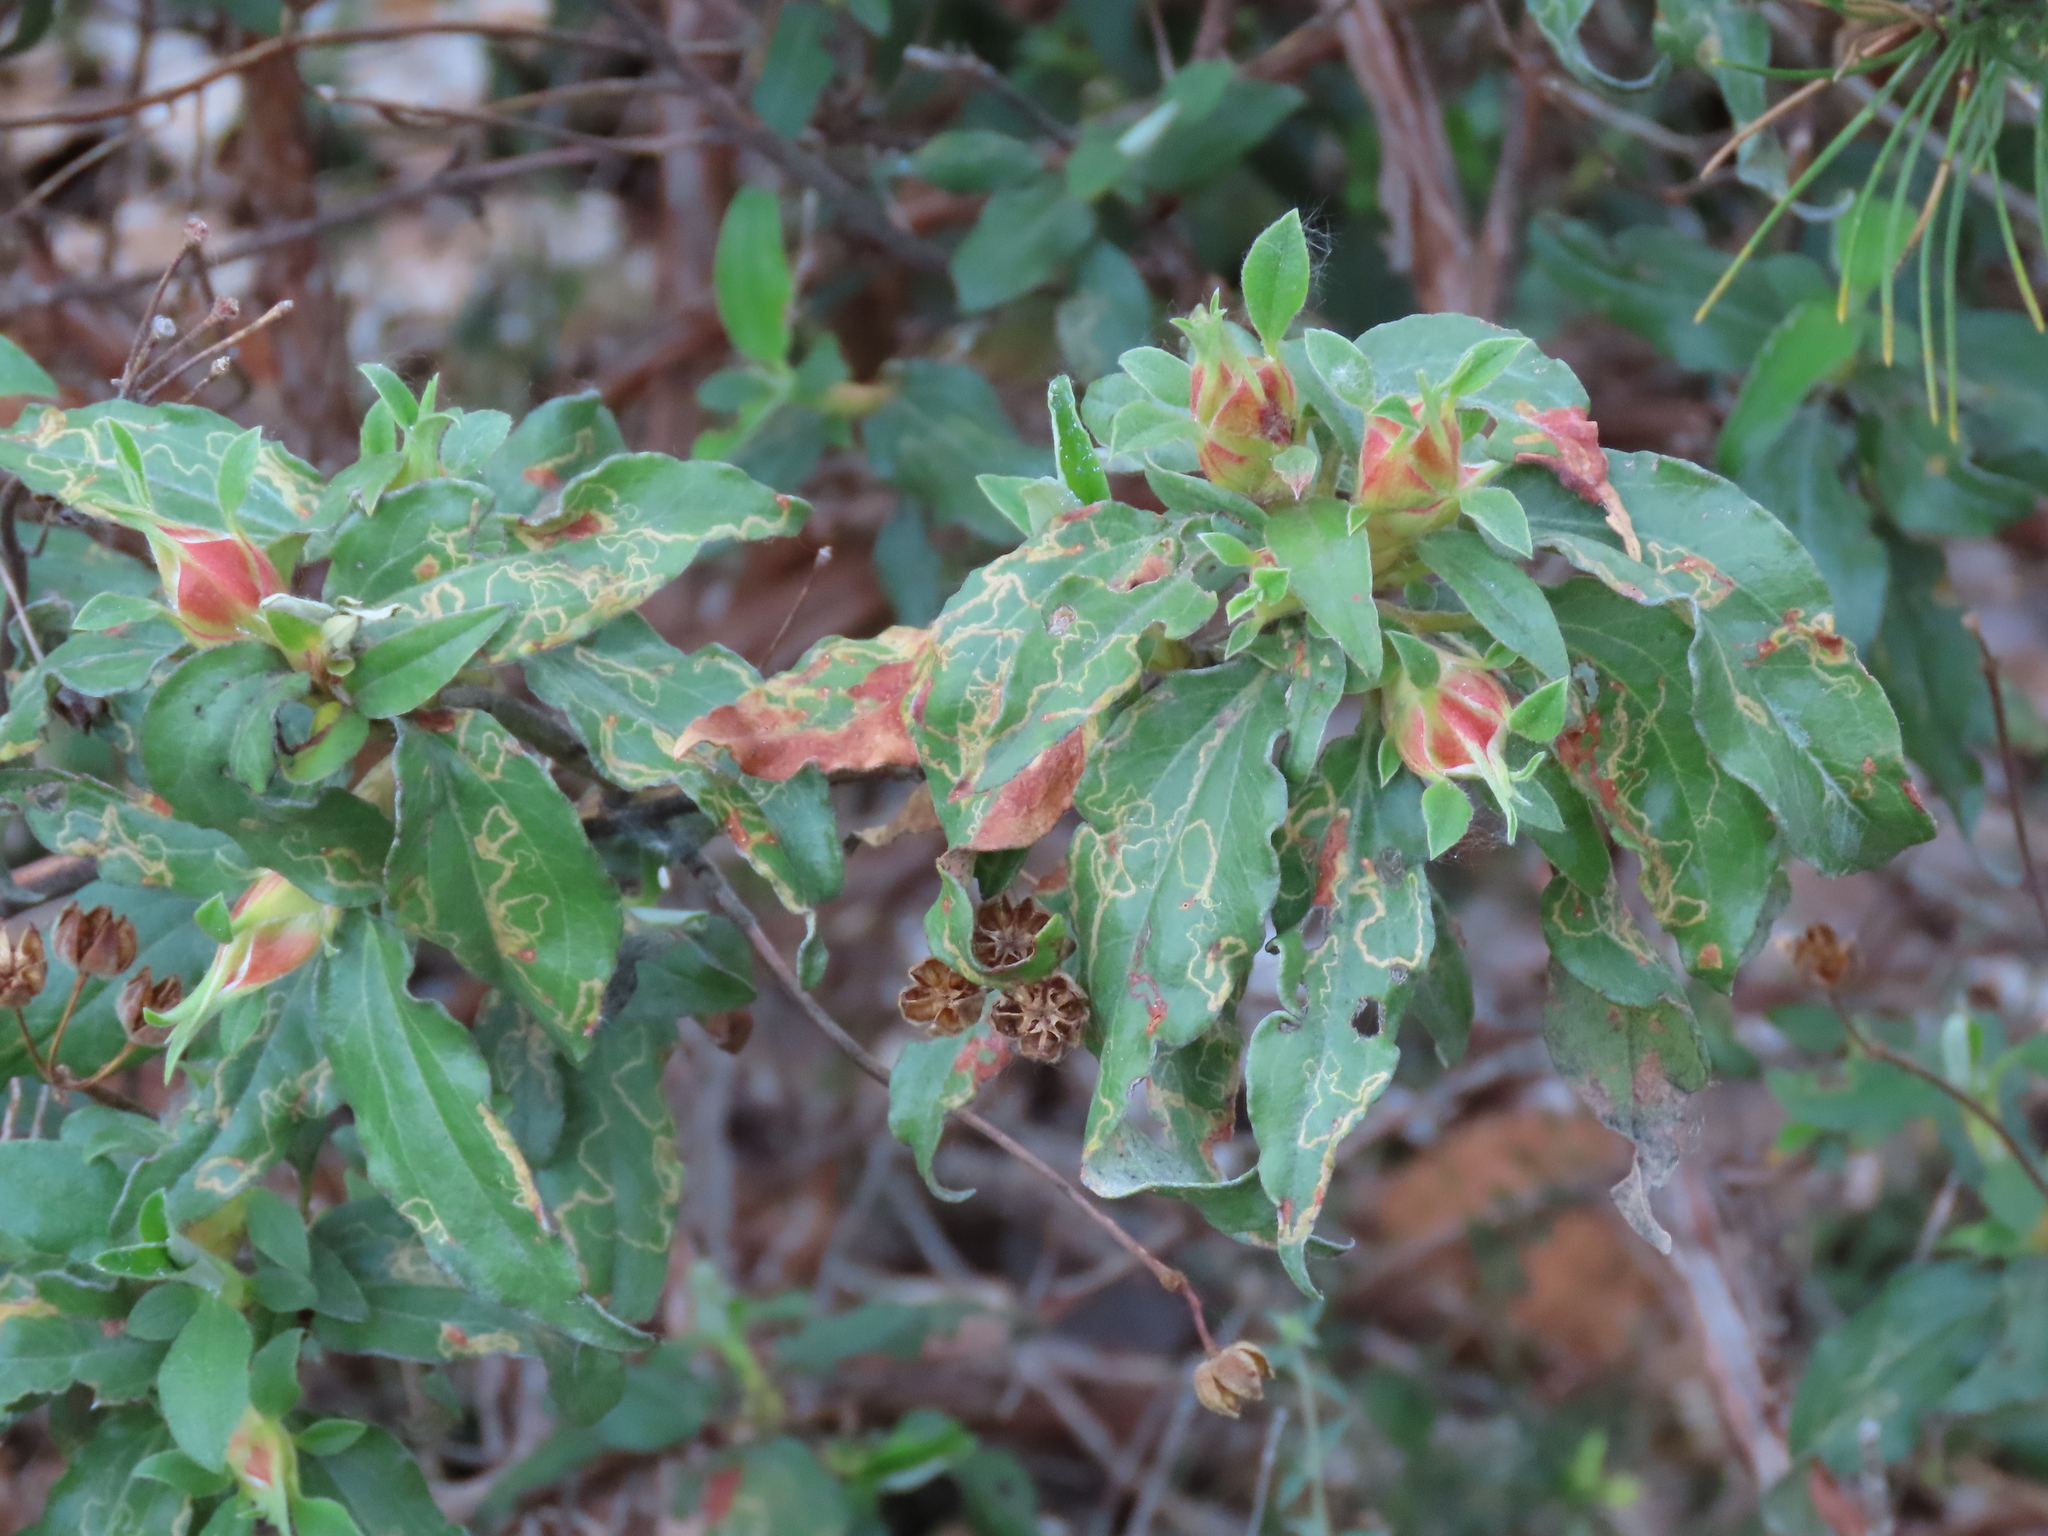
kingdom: Plantae
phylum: Tracheophyta
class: Magnoliopsida
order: Malvales
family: Cistaceae
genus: Cistus
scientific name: Cistus laurifolius
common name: Laurel-leaved cistus
